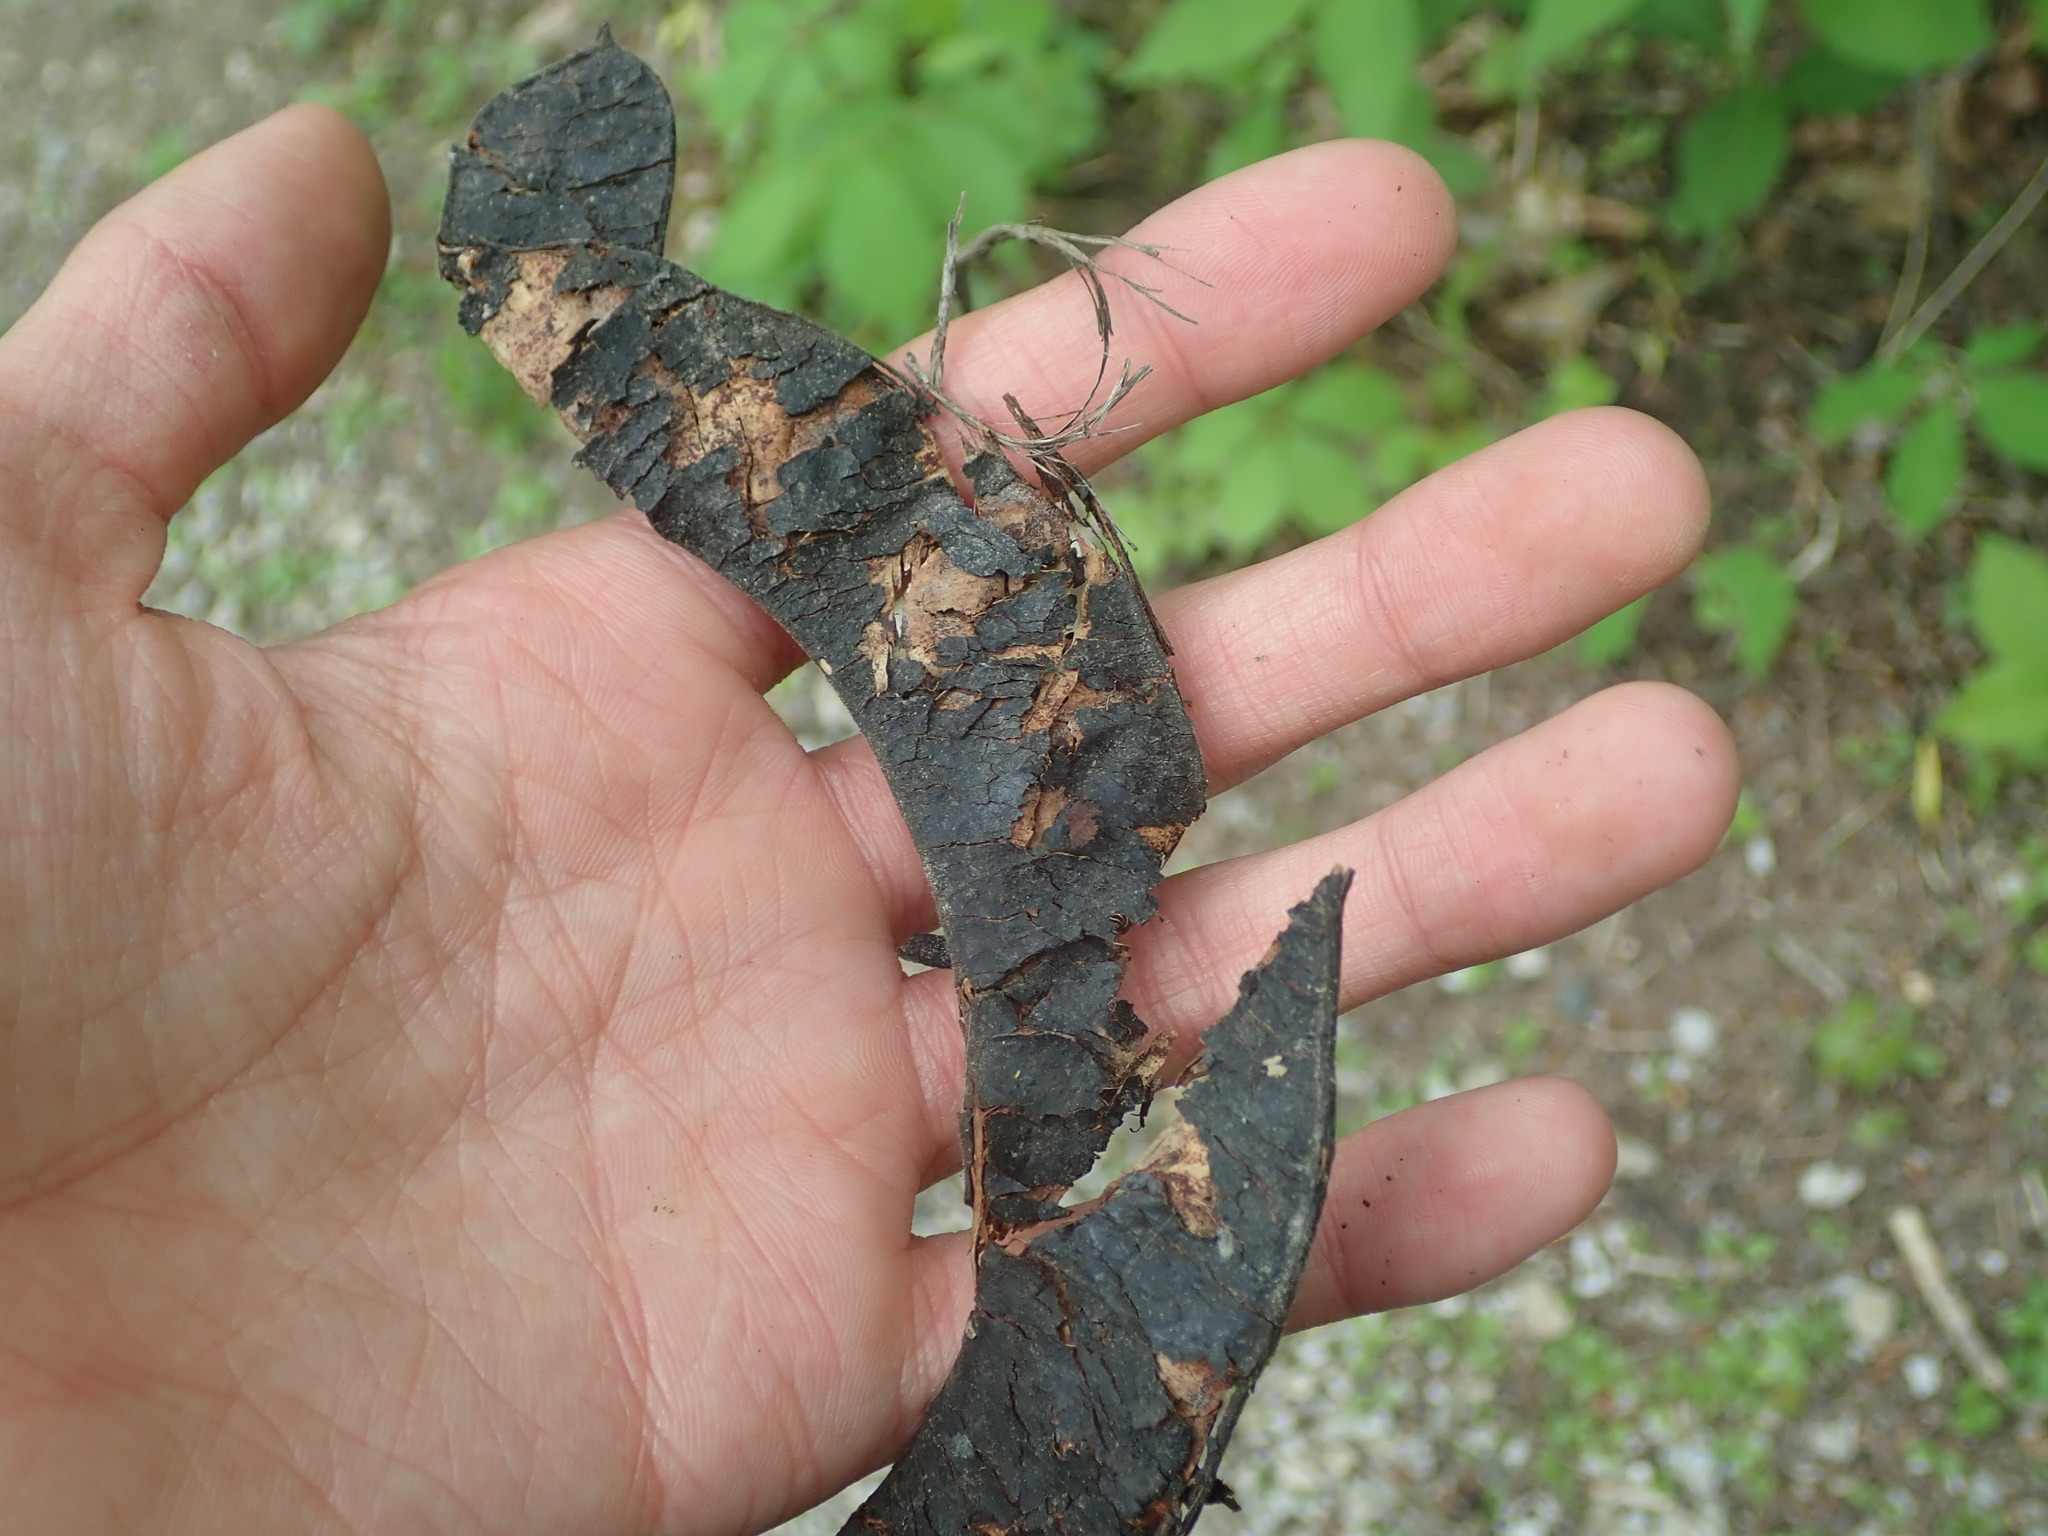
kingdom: Plantae
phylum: Tracheophyta
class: Magnoliopsida
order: Fabales
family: Fabaceae
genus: Gleditsia
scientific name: Gleditsia triacanthos
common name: Common honeylocust
